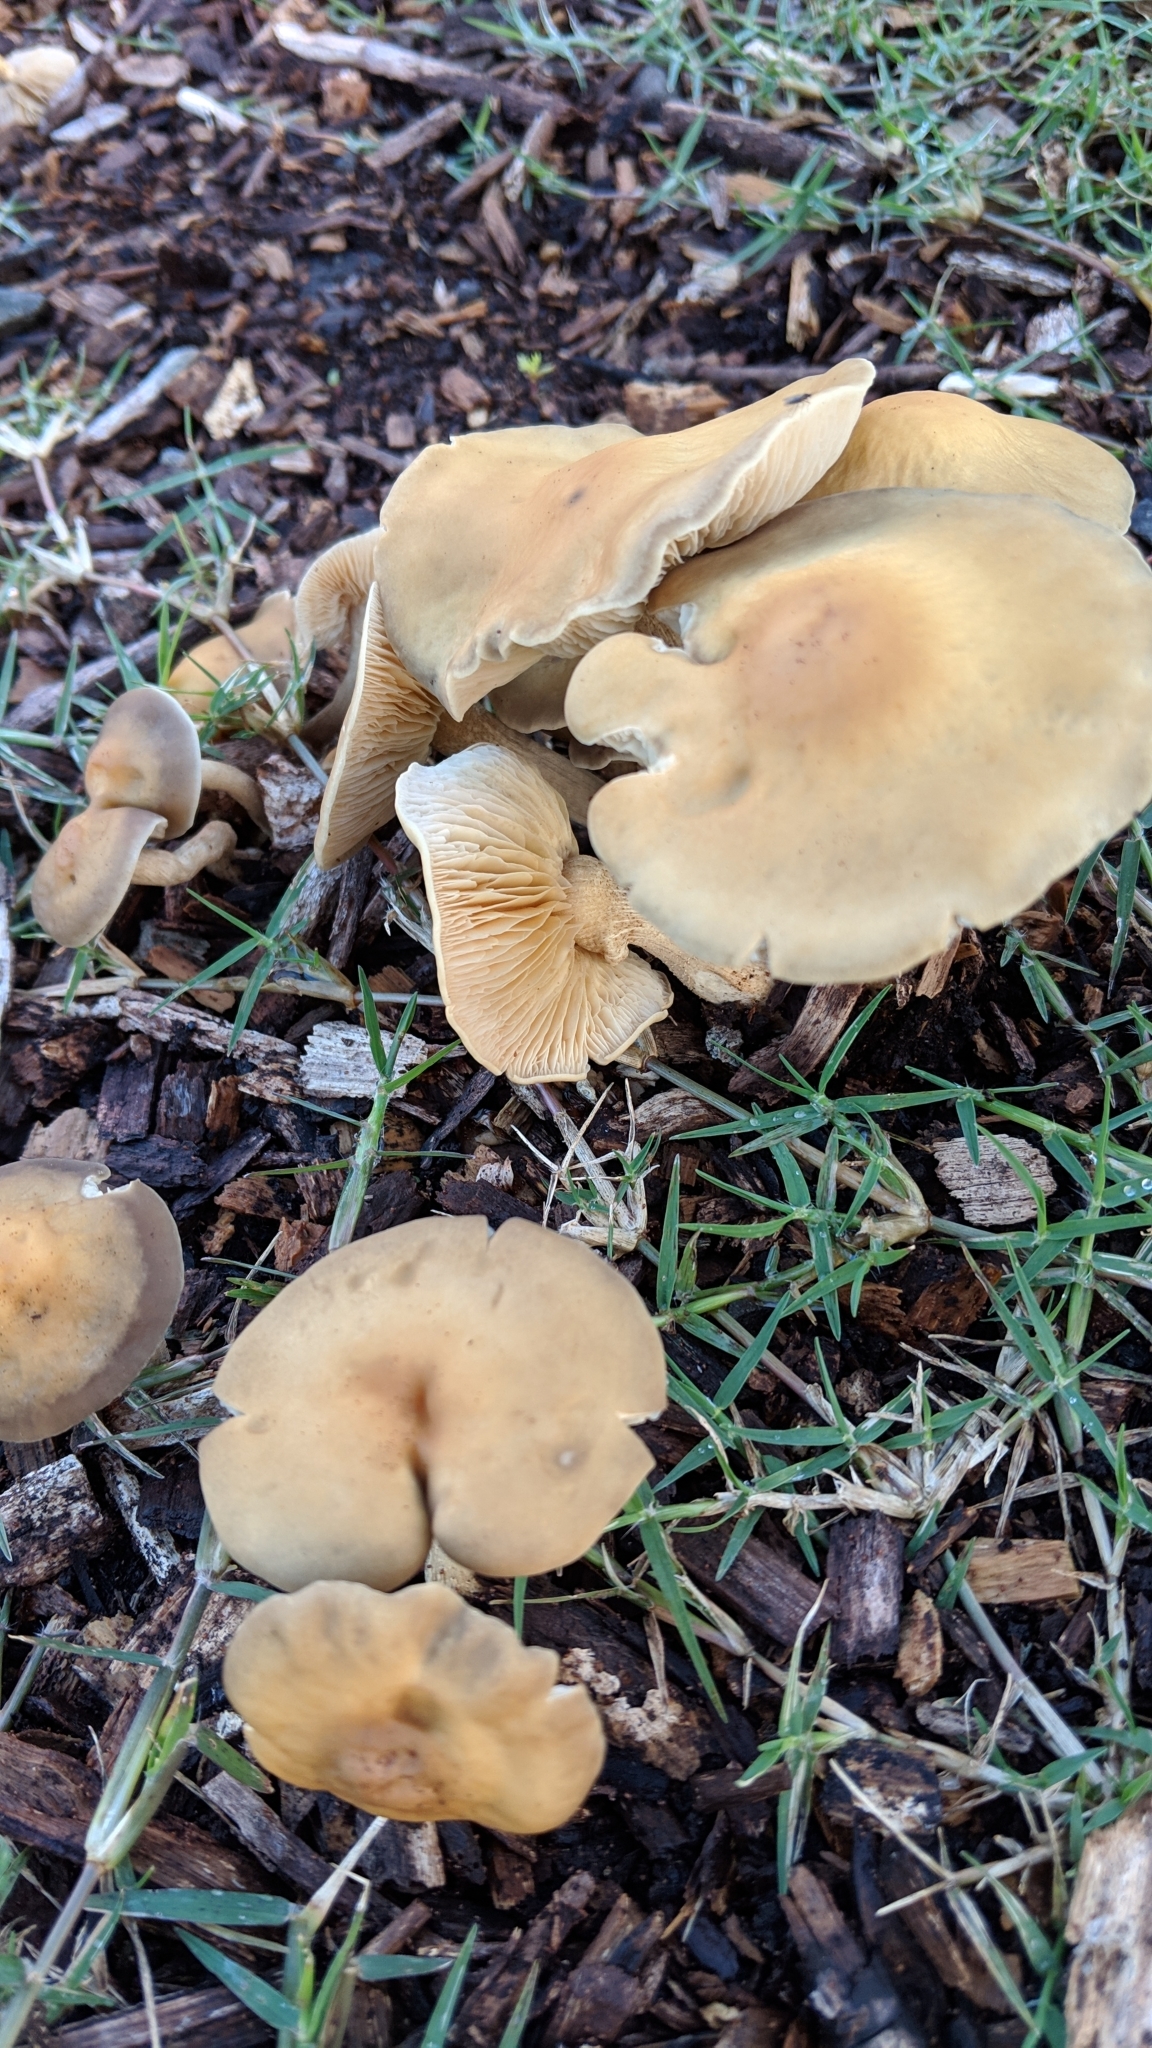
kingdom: Fungi
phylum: Basidiomycota
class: Agaricomycetes
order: Agaricales
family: Strophariaceae
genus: Agrocybe
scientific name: Agrocybe putaminum
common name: Mulch fieldcap
